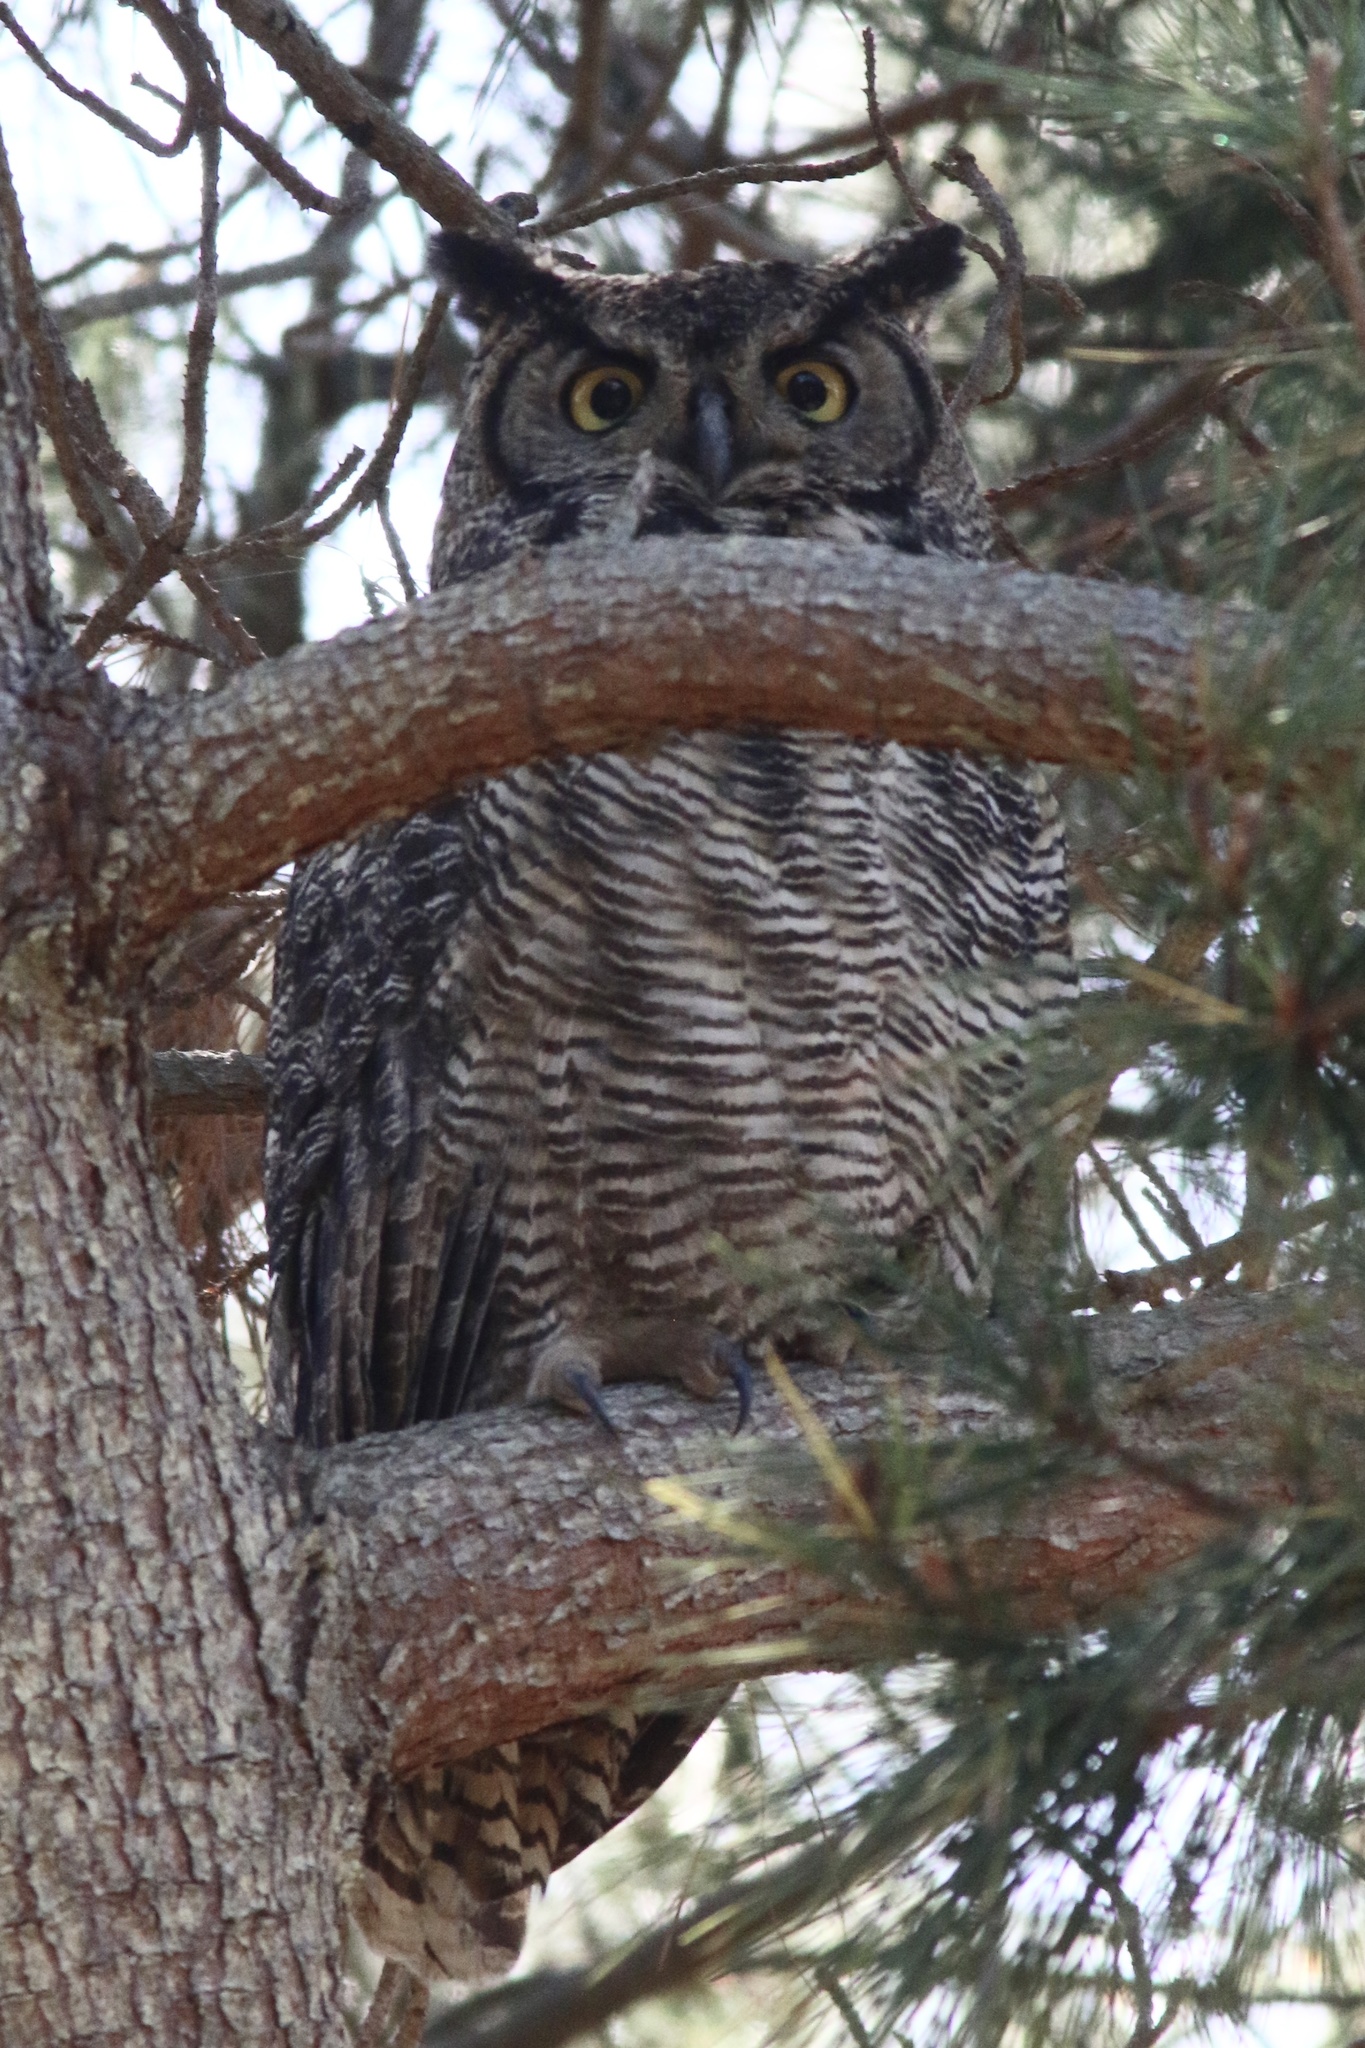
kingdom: Animalia
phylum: Chordata
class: Aves
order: Strigiformes
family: Strigidae
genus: Bubo
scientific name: Bubo virginianus
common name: Great horned owl
